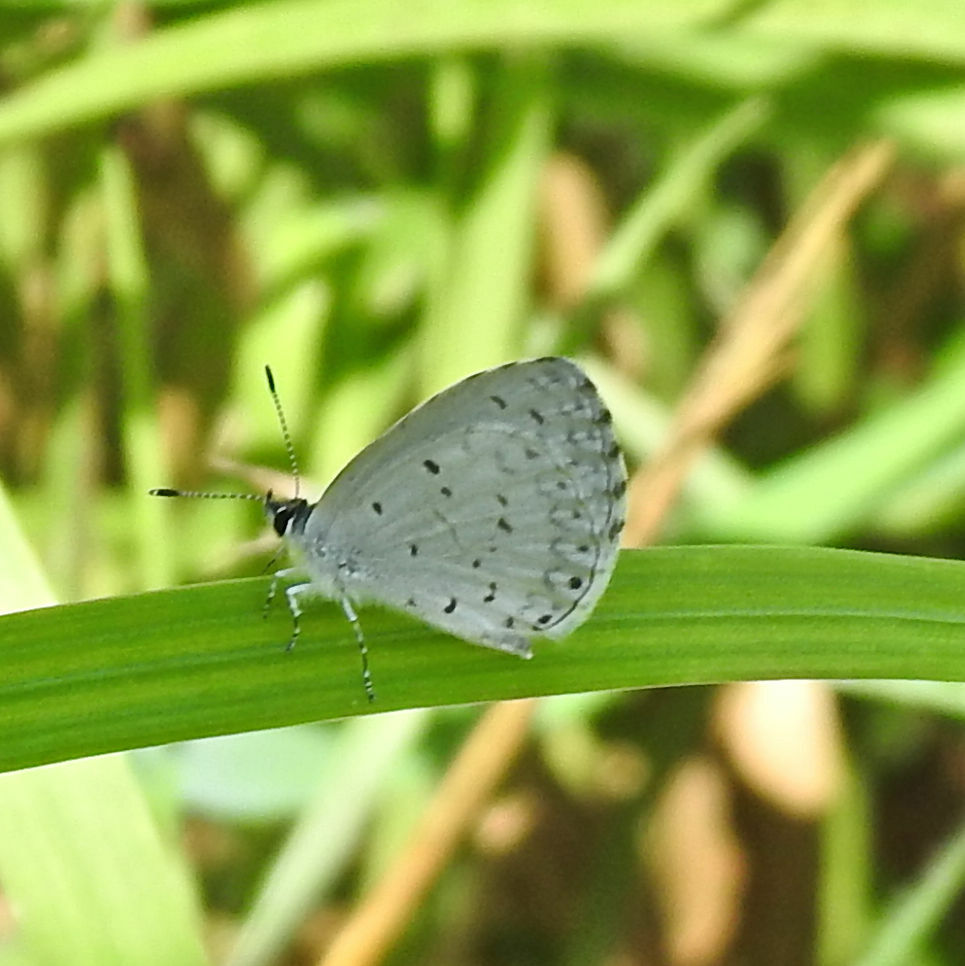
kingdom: Animalia
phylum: Arthropoda
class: Insecta
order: Lepidoptera
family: Lycaenidae
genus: Cyaniris
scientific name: Cyaniris neglecta
